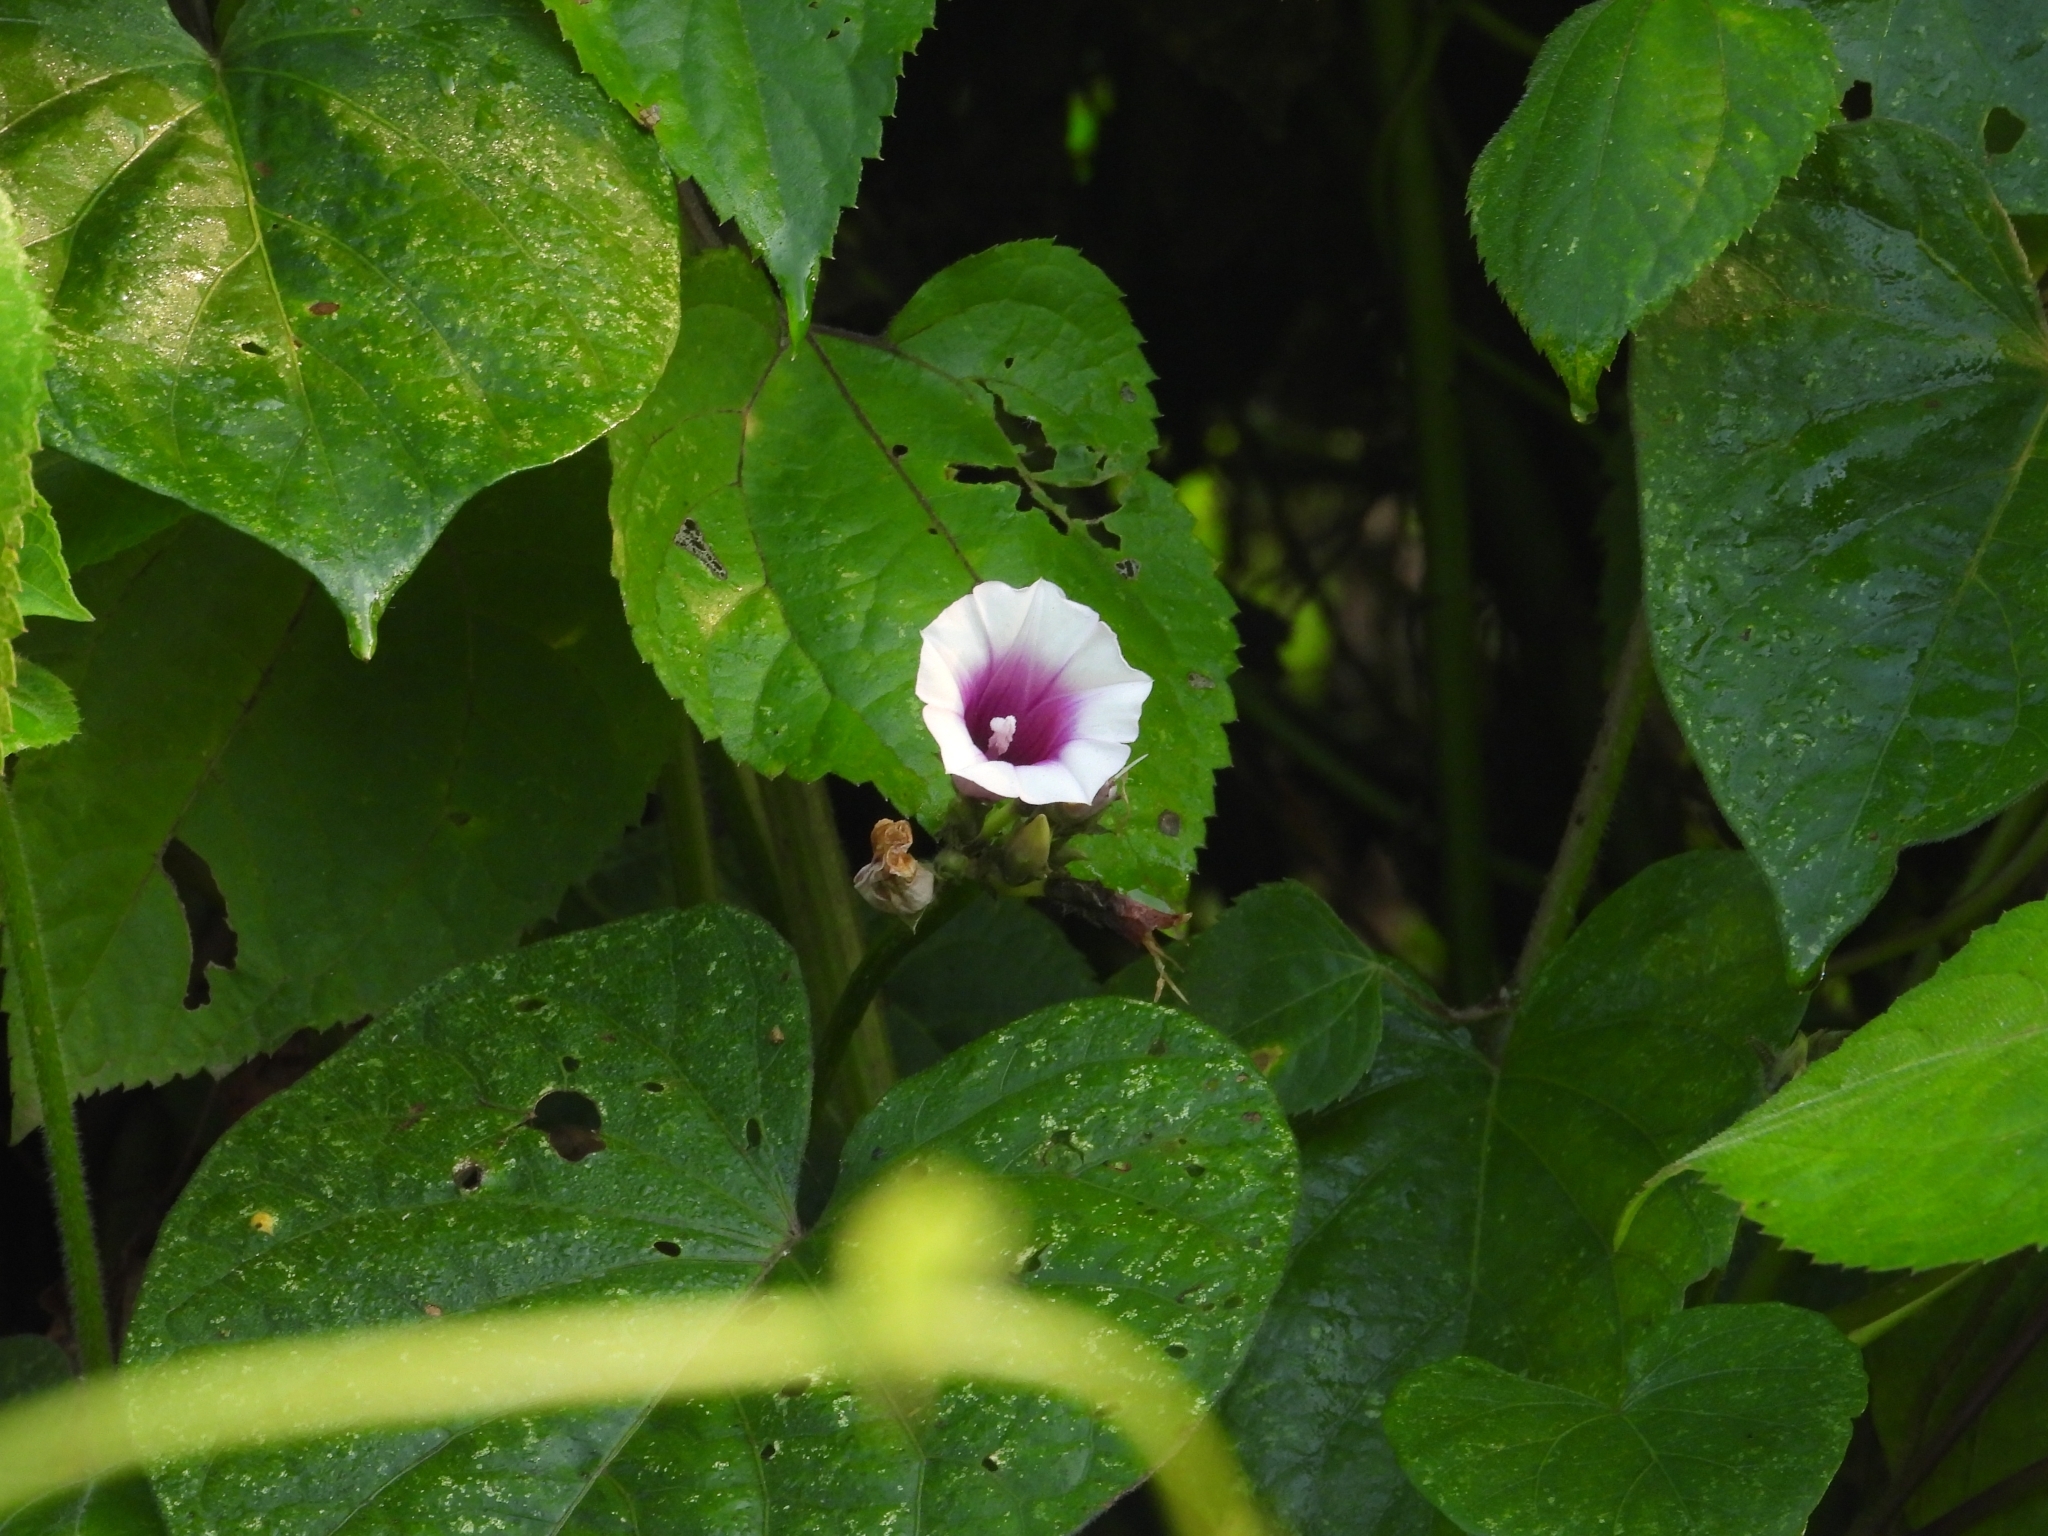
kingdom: Plantae
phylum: Tracheophyta
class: Magnoliopsida
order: Solanales
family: Convolvulaceae
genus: Ipomoea
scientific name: Ipomoea batatas
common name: Sweet-potato
